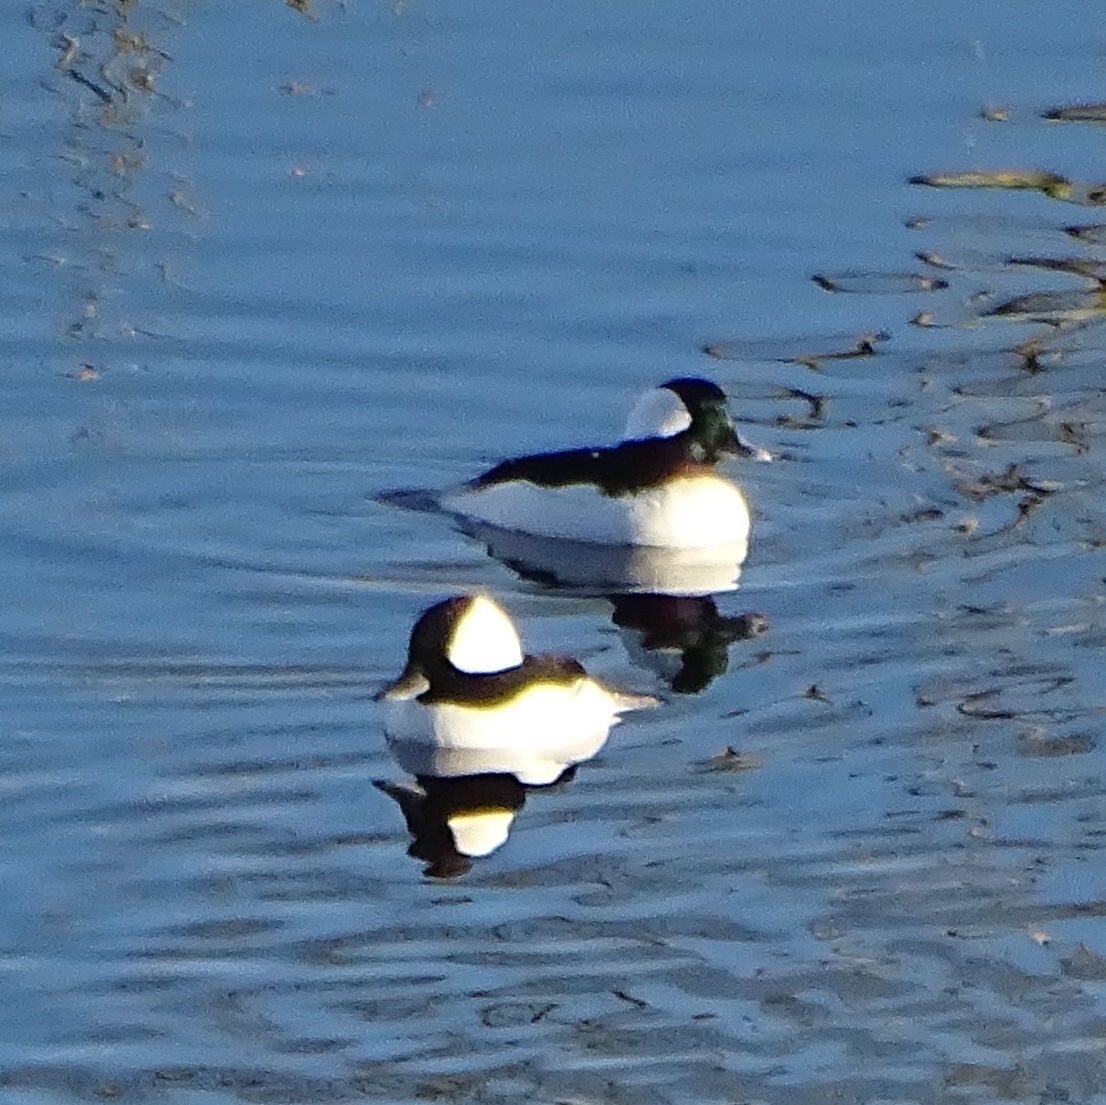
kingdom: Animalia
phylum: Chordata
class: Aves
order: Anseriformes
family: Anatidae
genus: Bucephala
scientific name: Bucephala albeola
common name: Bufflehead
